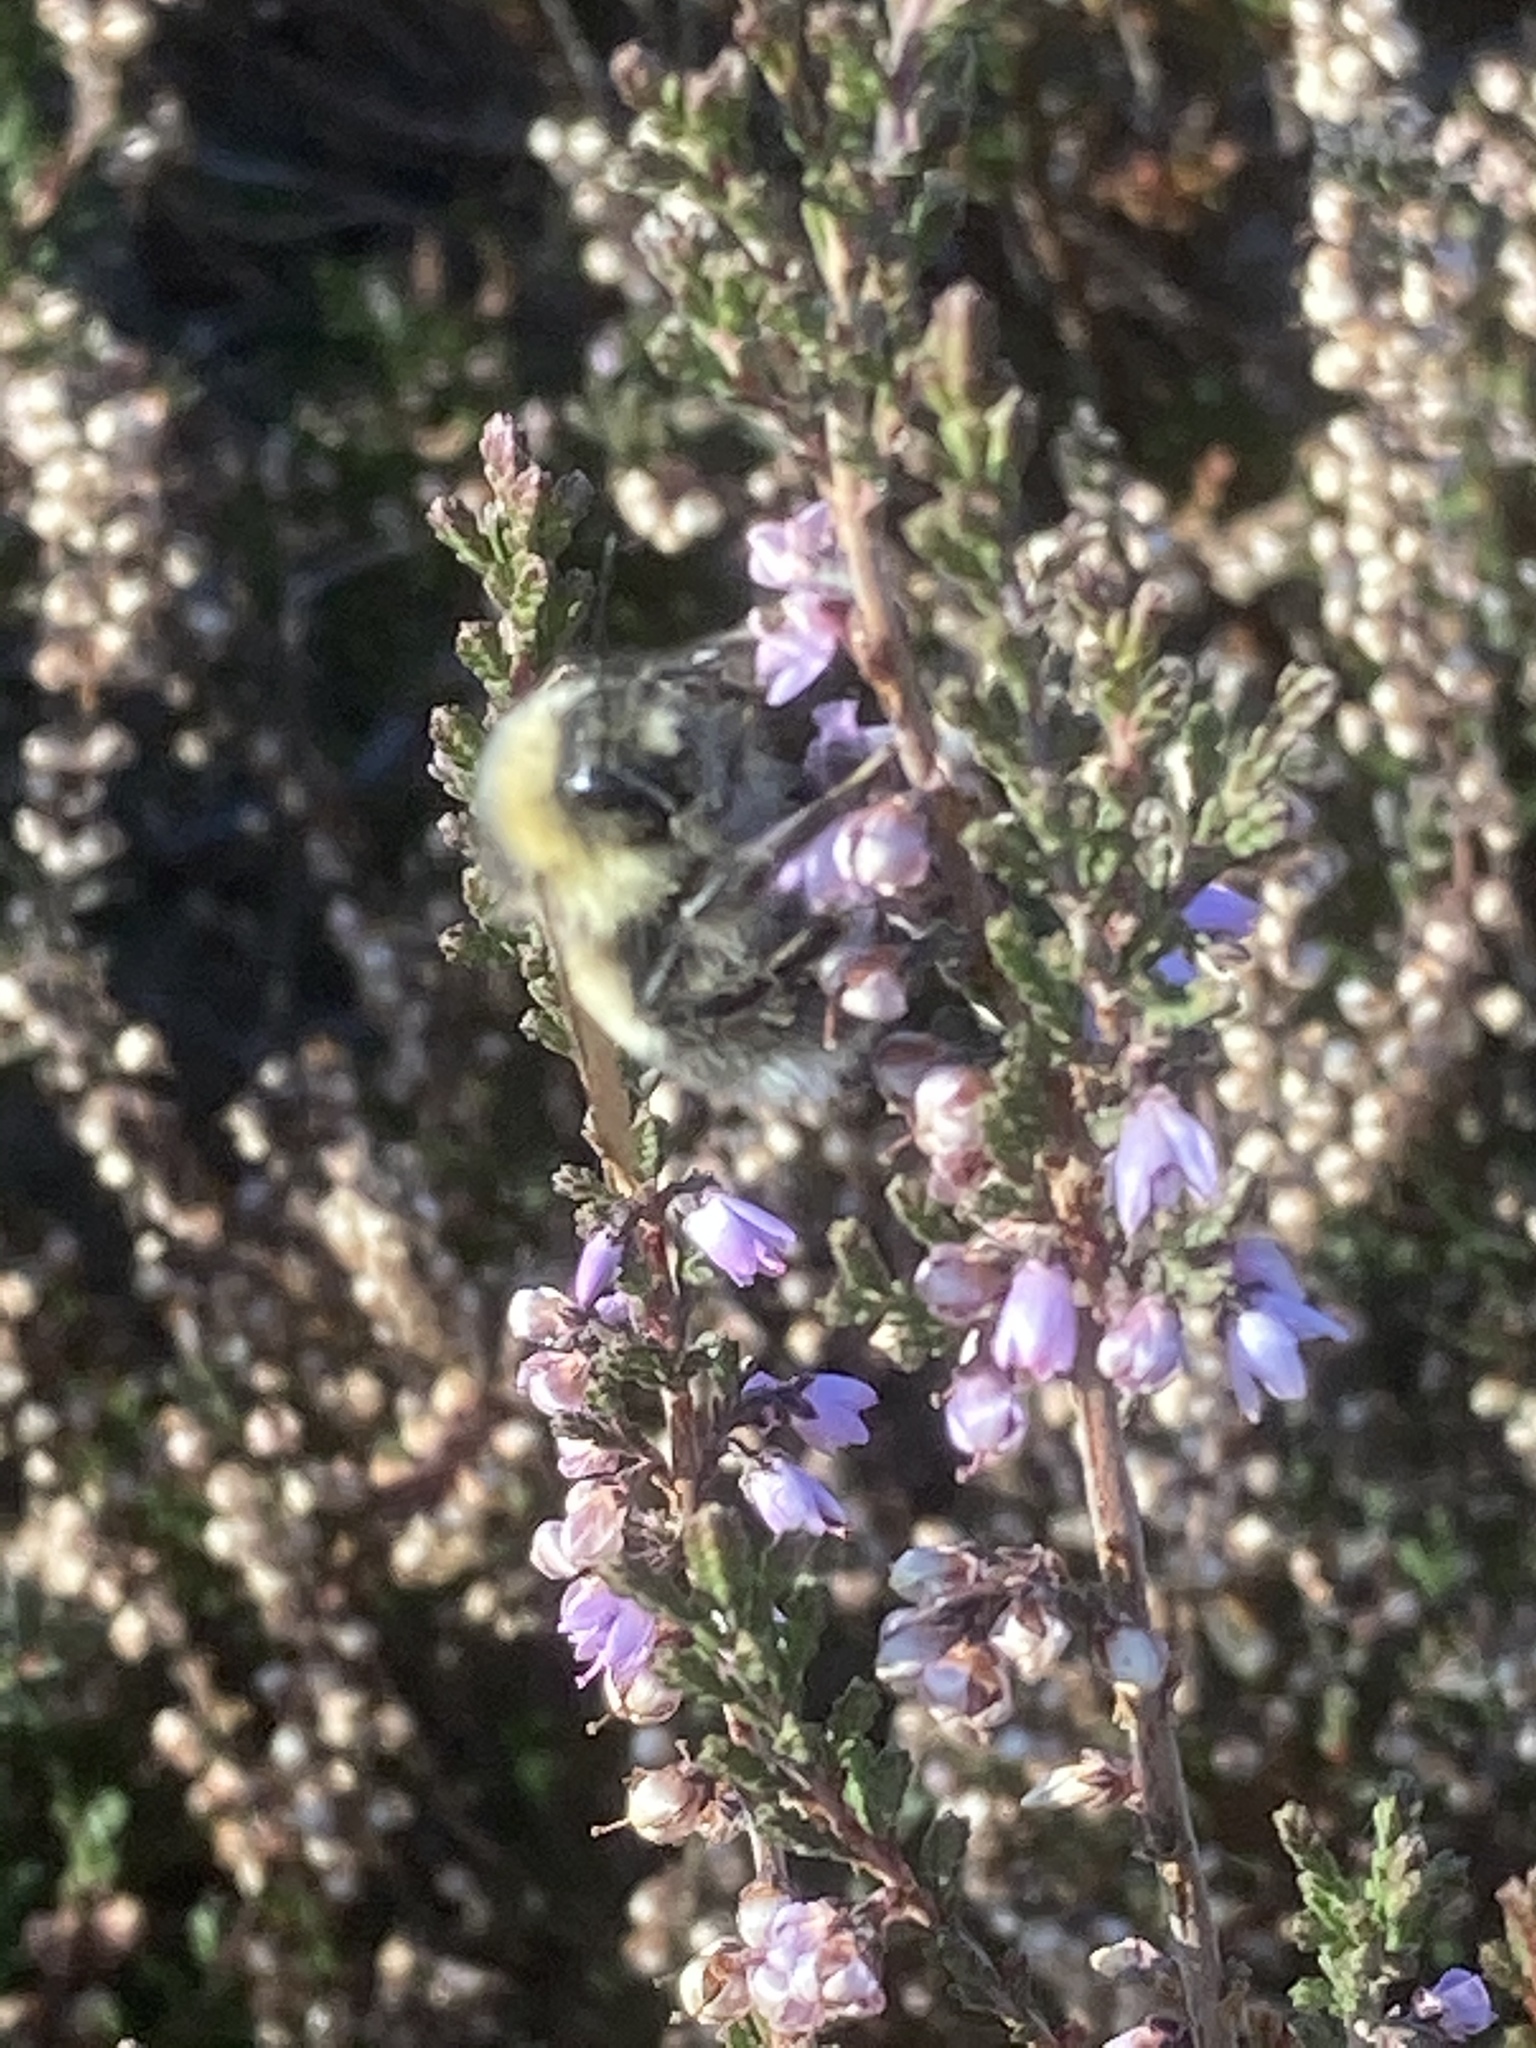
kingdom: Plantae
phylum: Tracheophyta
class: Magnoliopsida
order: Ericales
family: Ericaceae
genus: Calluna
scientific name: Calluna vulgaris
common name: Heather
